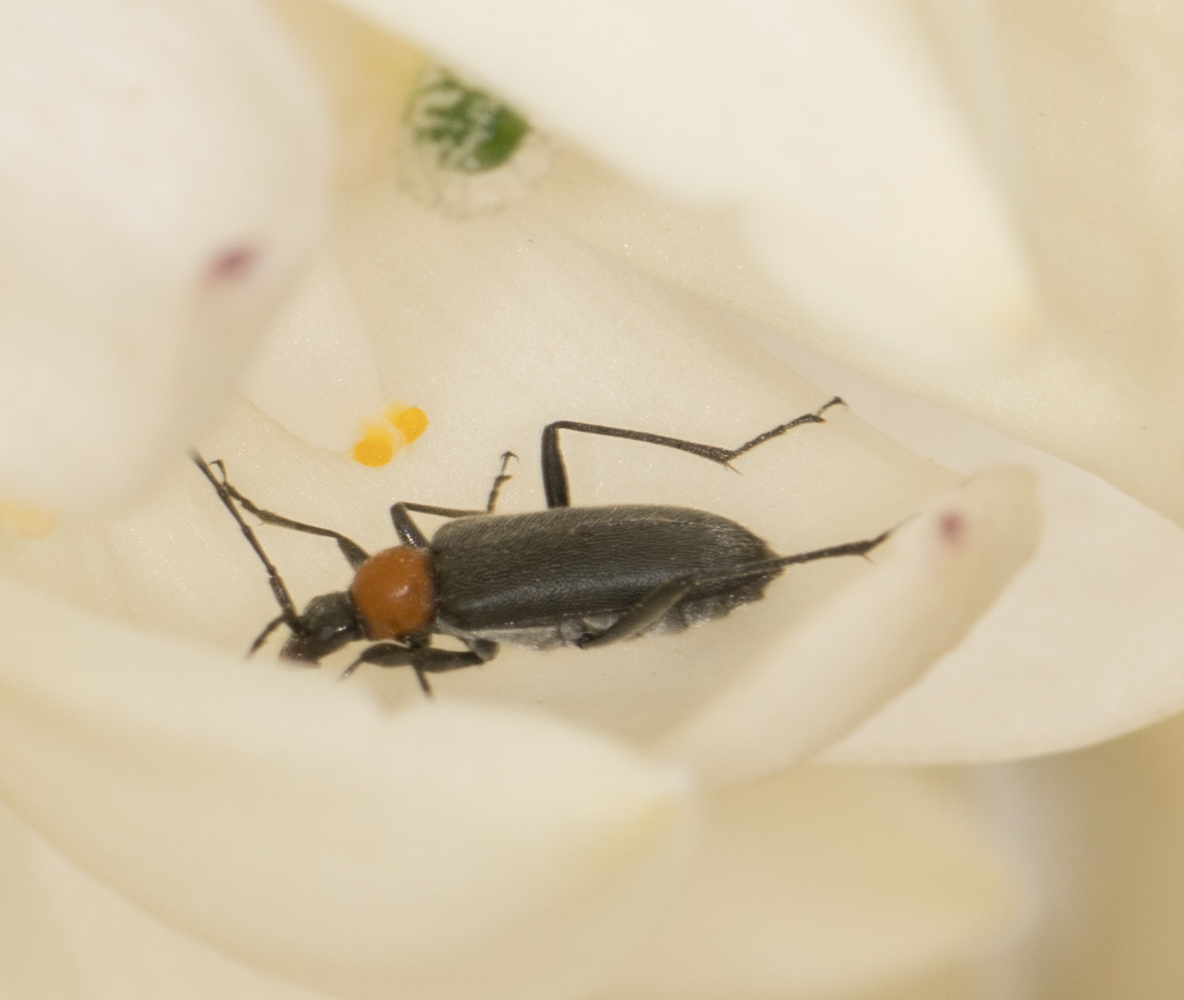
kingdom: Animalia
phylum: Arthropoda
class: Insecta
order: Coleoptera
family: Cerambycidae
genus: Cortodera
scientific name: Cortodera falsa
